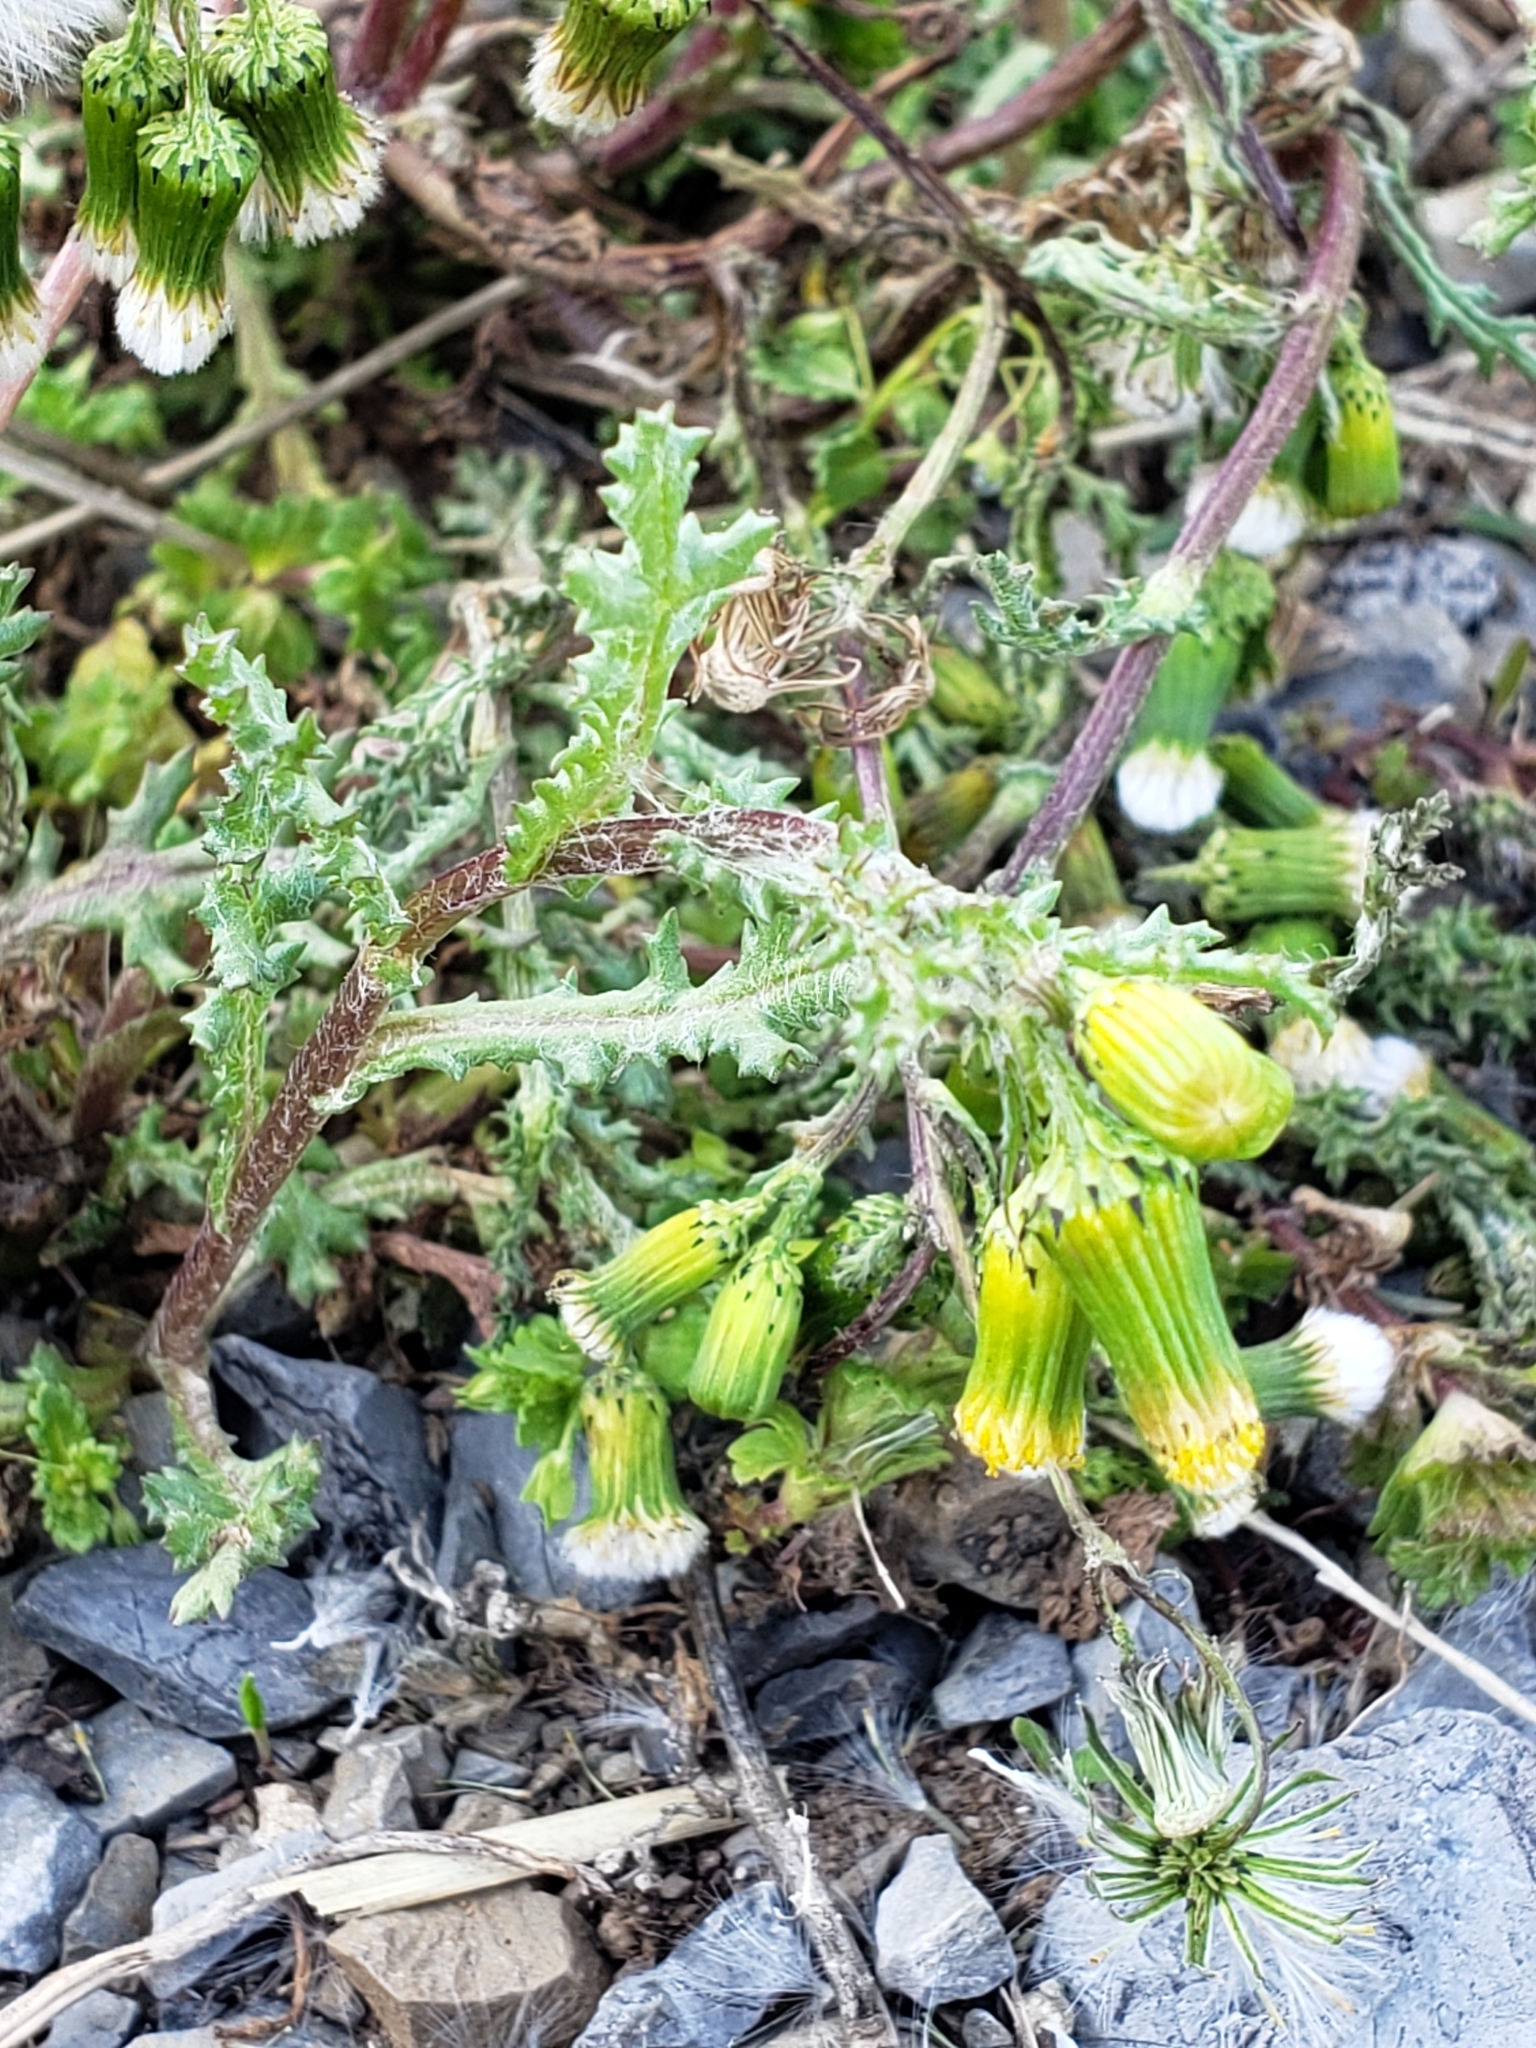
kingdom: Plantae
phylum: Tracheophyta
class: Magnoliopsida
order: Asterales
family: Asteraceae
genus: Senecio
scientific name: Senecio vulgaris
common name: Old-man-in-the-spring
